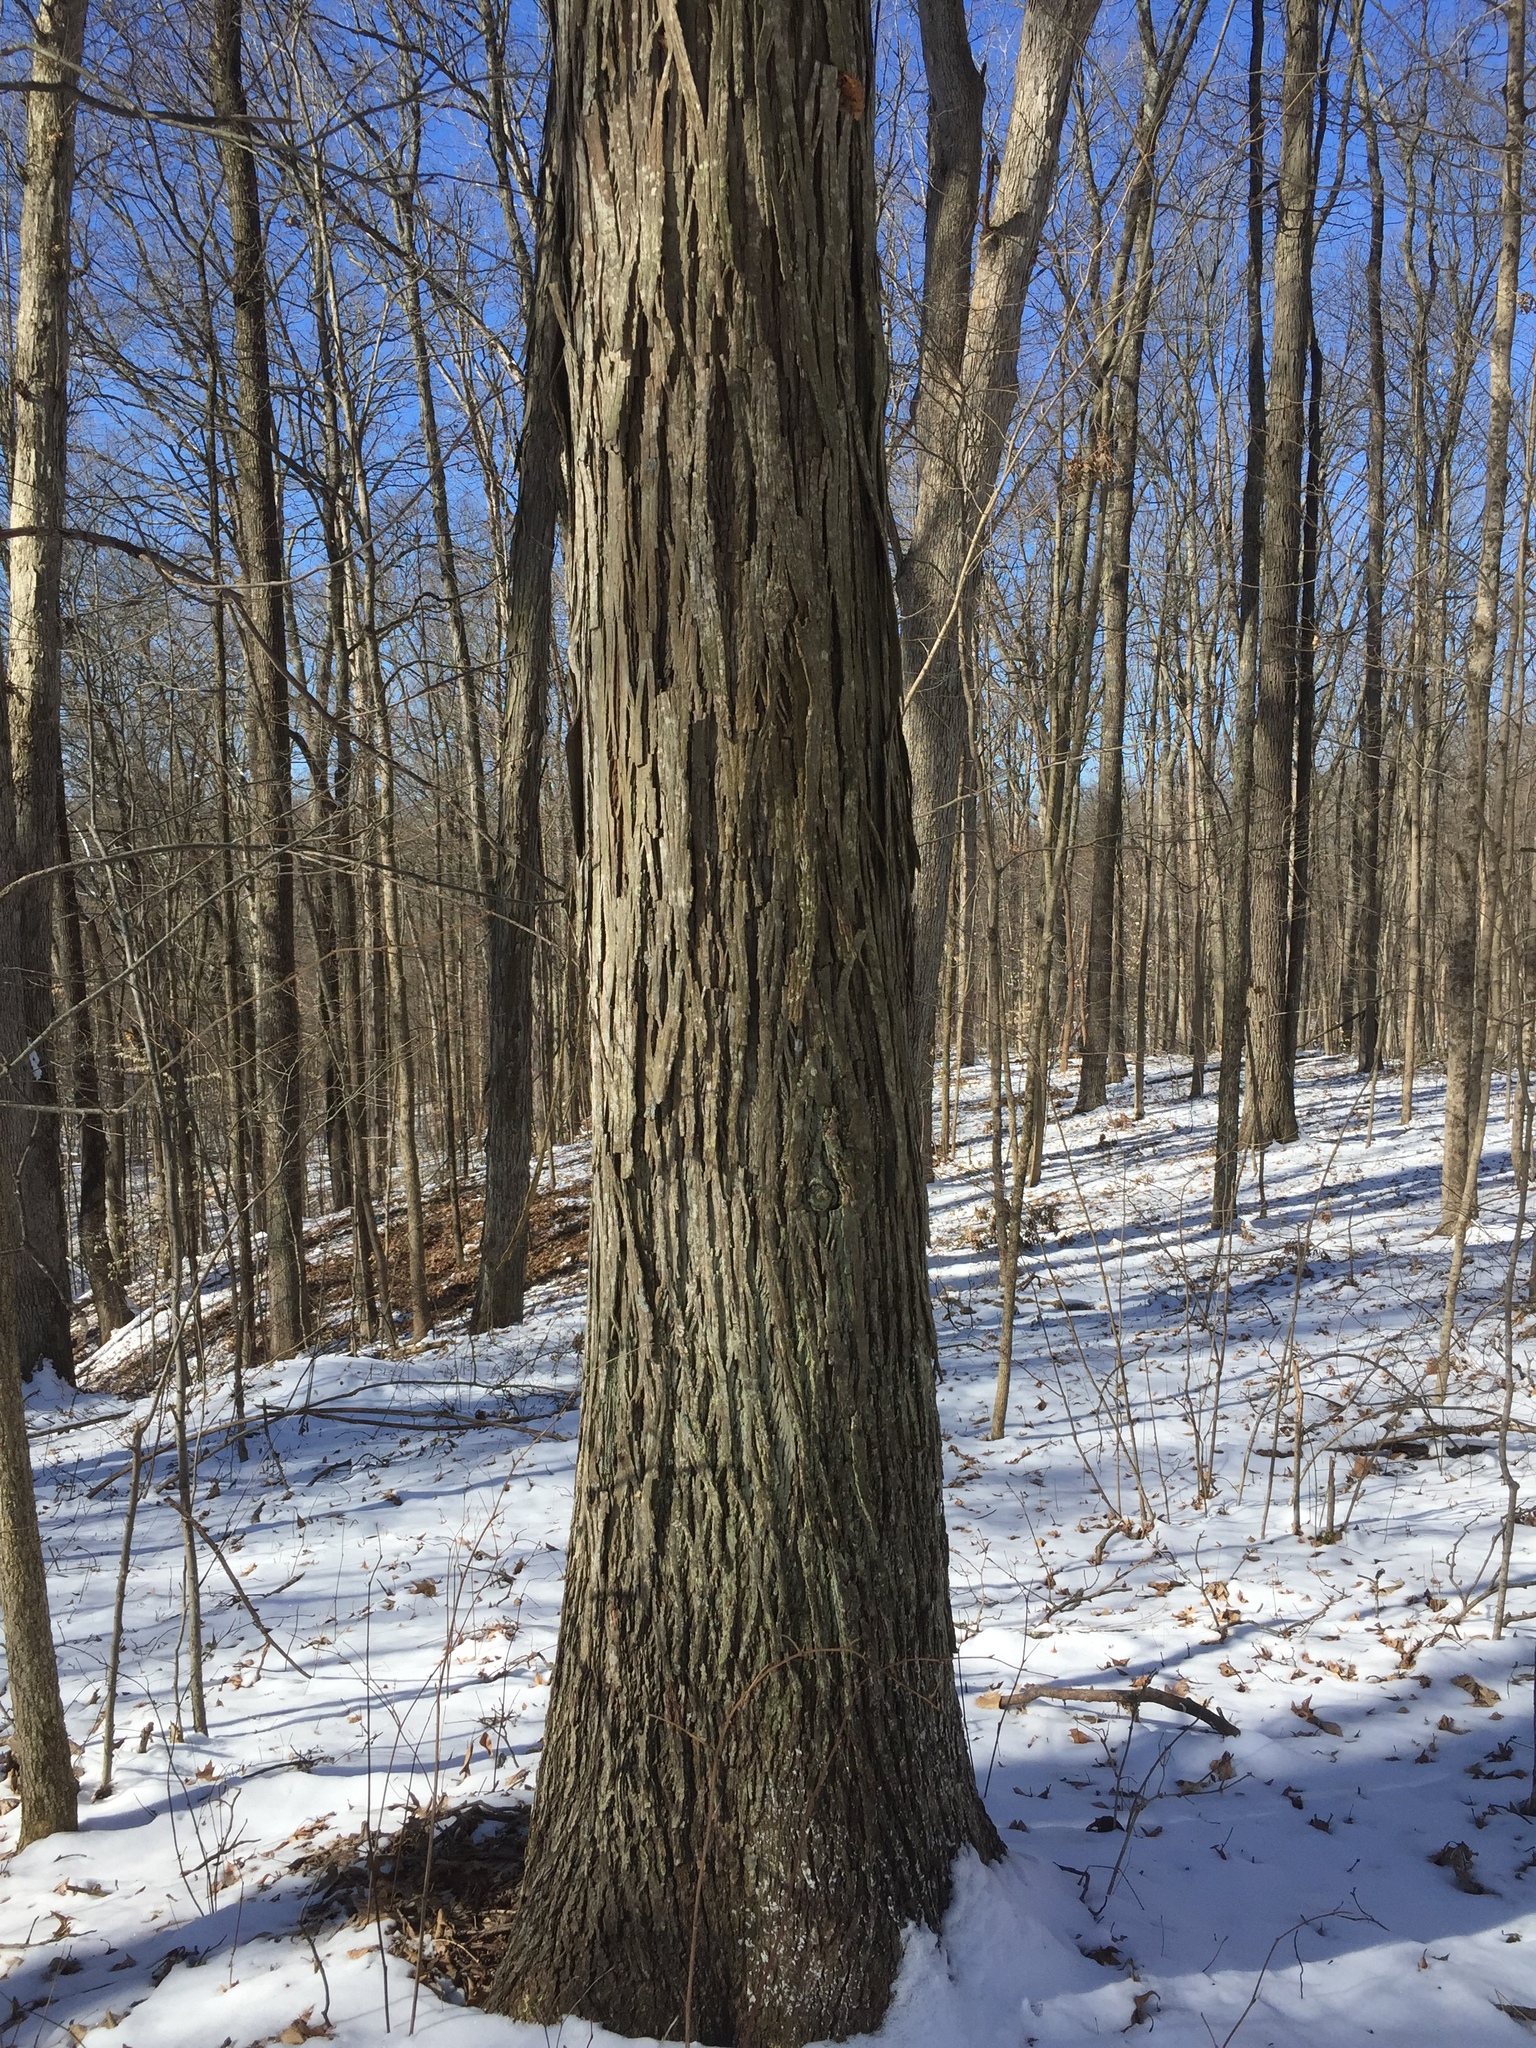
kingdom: Plantae
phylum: Tracheophyta
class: Magnoliopsida
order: Fagales
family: Juglandaceae
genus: Carya
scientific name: Carya ovata
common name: Shagbark hickory
